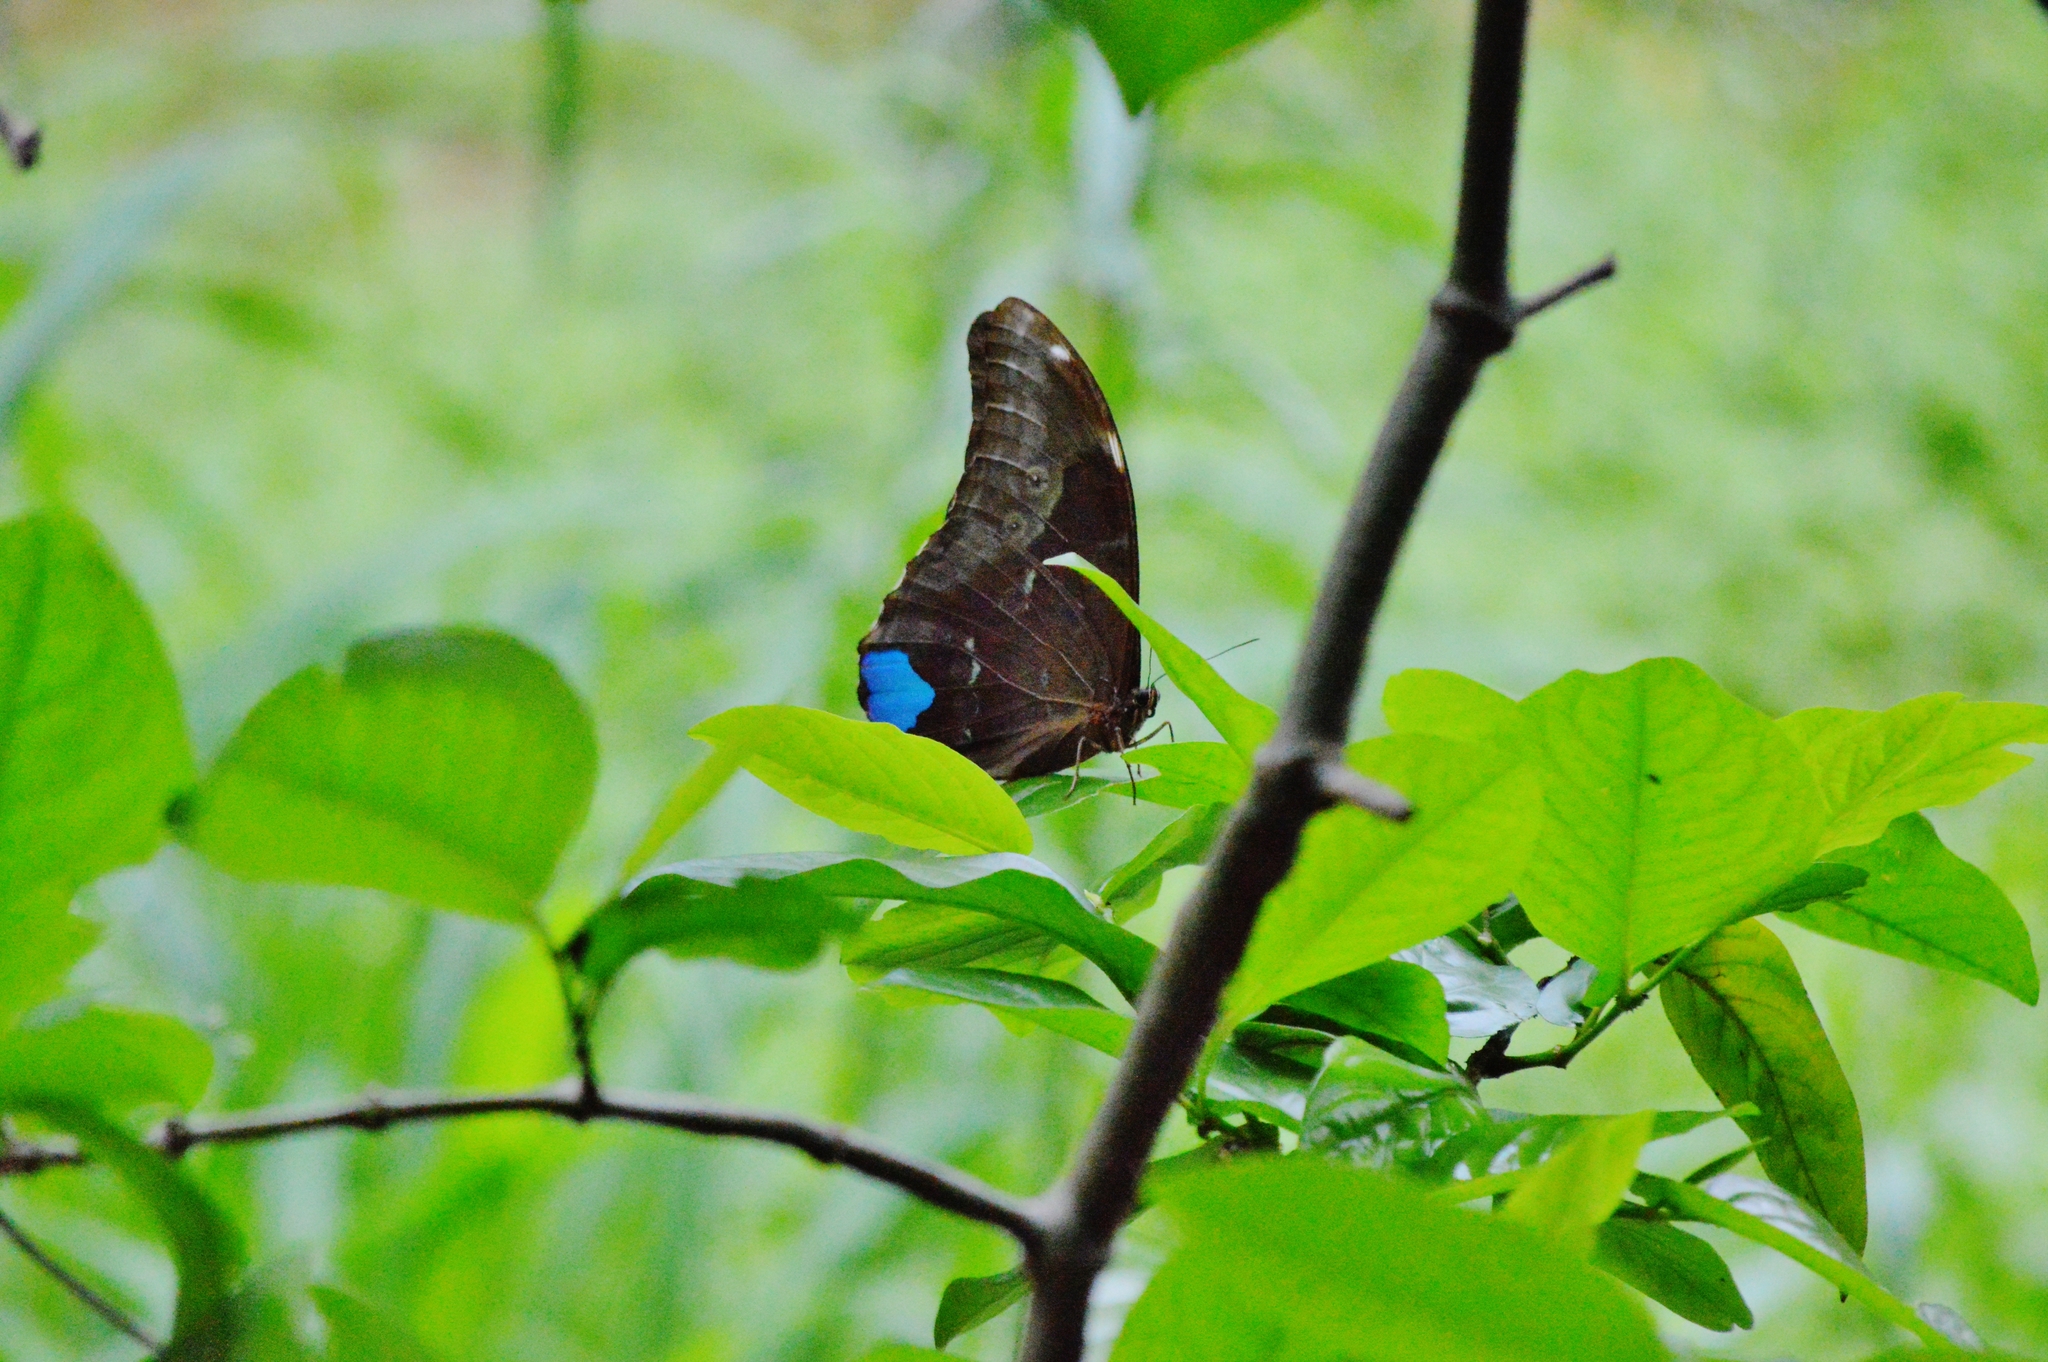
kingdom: Animalia
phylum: Arthropoda
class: Insecta
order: Lepidoptera
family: Nymphalidae
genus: Morpho
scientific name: Morpho menelaus
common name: Menelaus morpho
